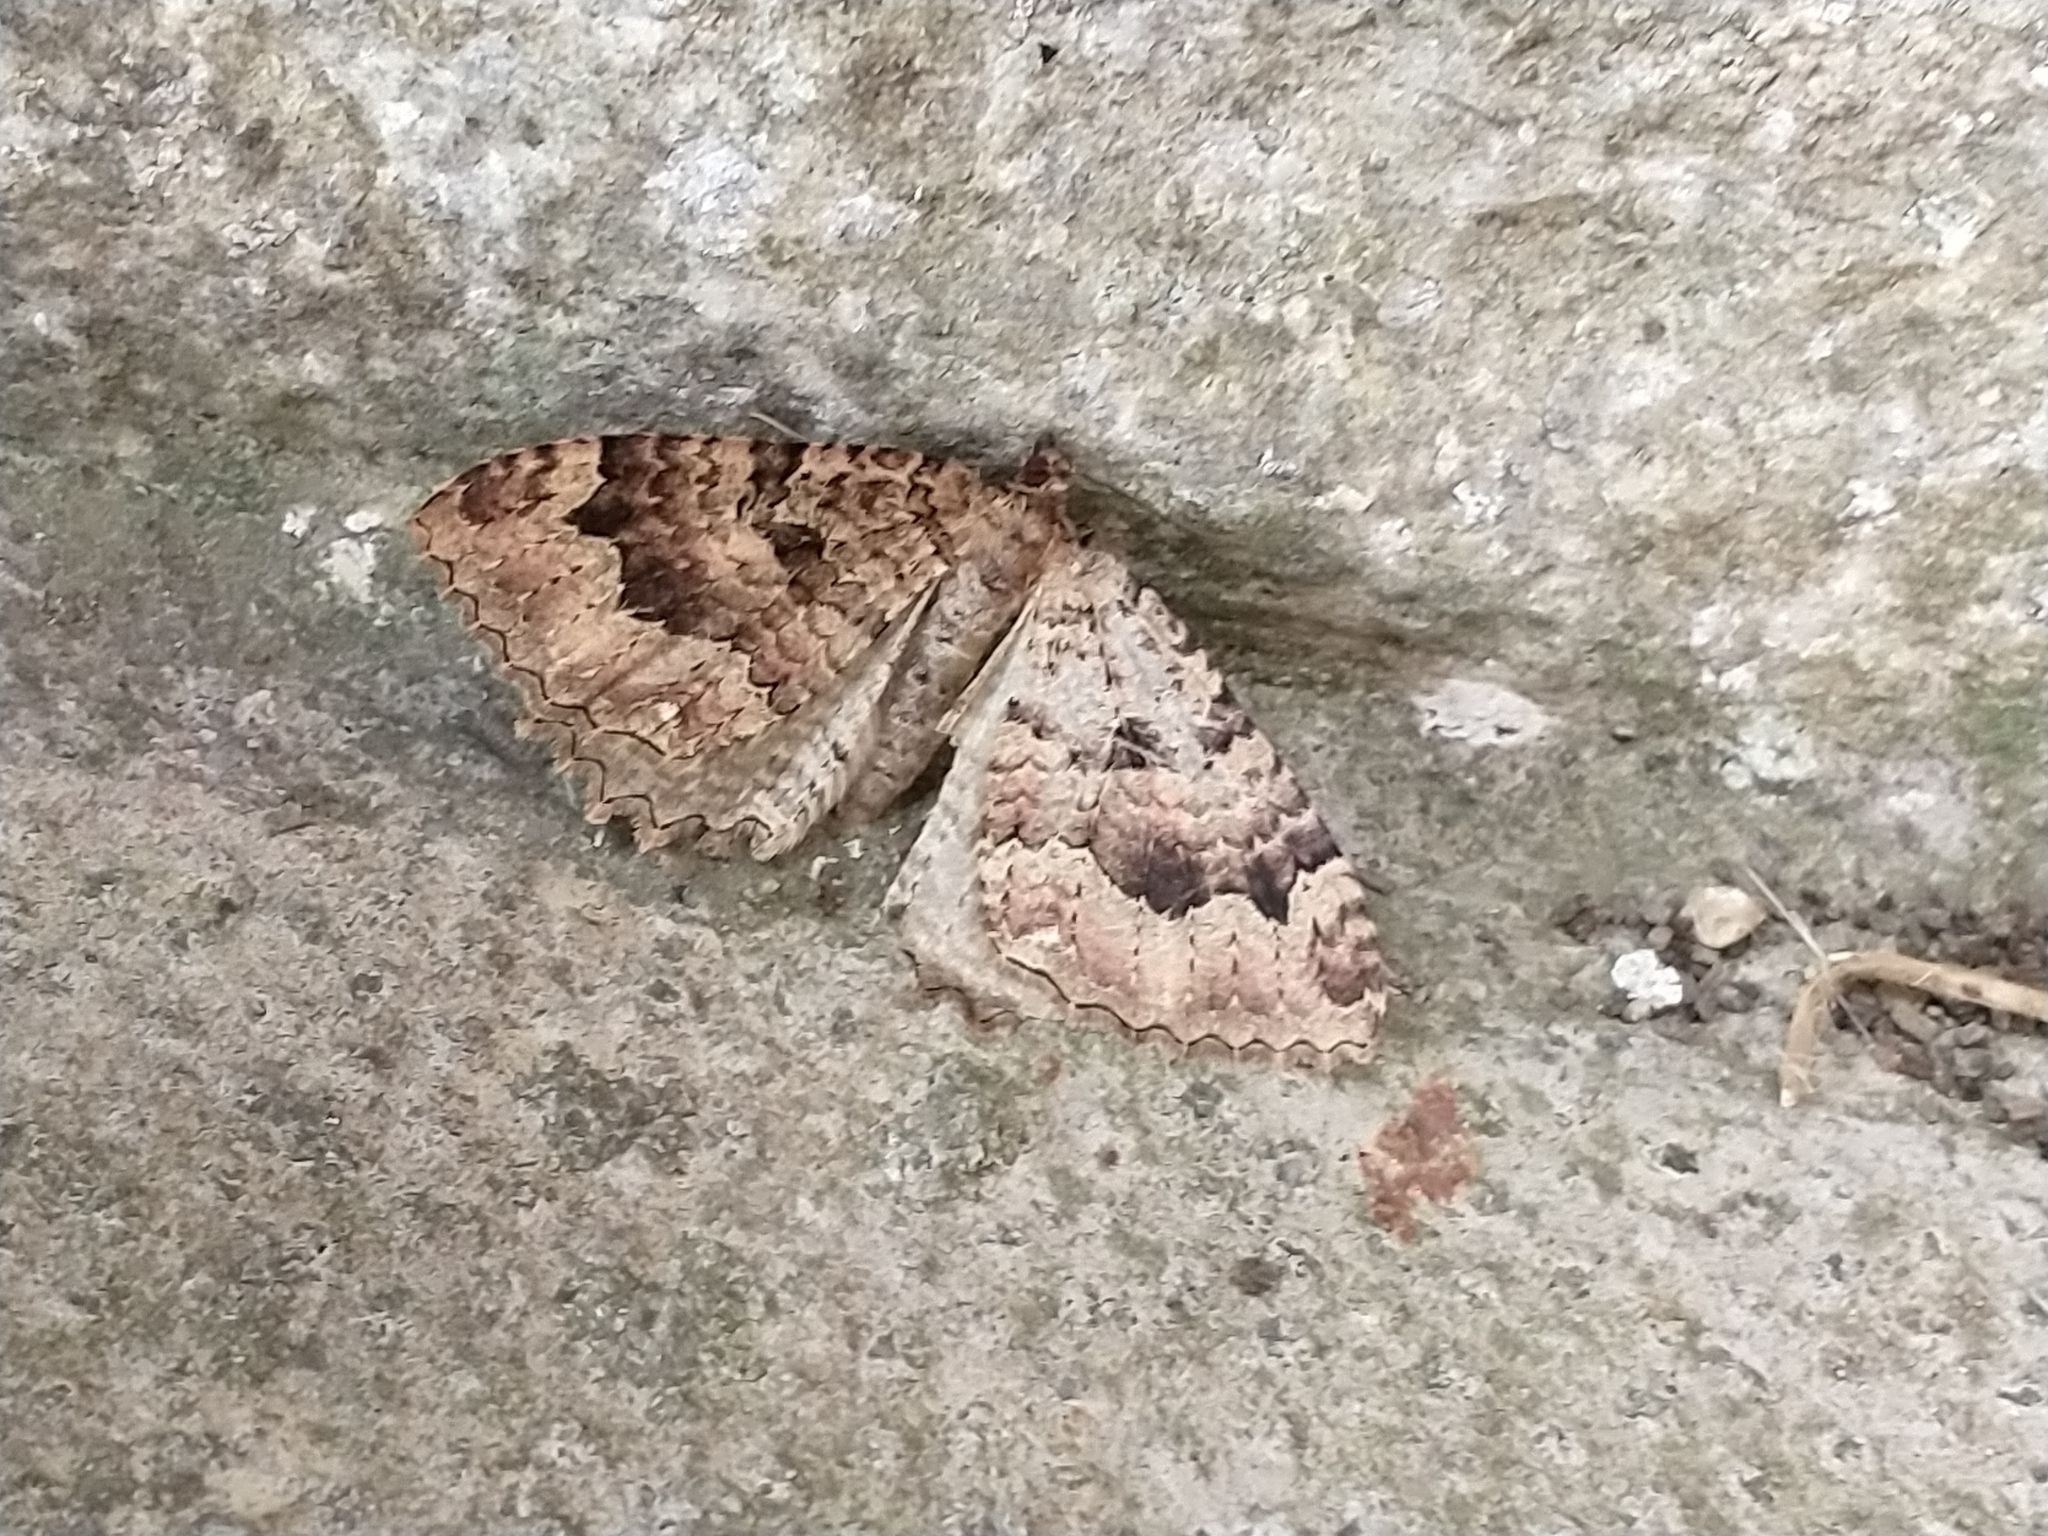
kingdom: Animalia
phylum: Arthropoda
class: Insecta
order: Lepidoptera
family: Geometridae
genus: Triphosa
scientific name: Triphosa dubitata
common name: Tissue
